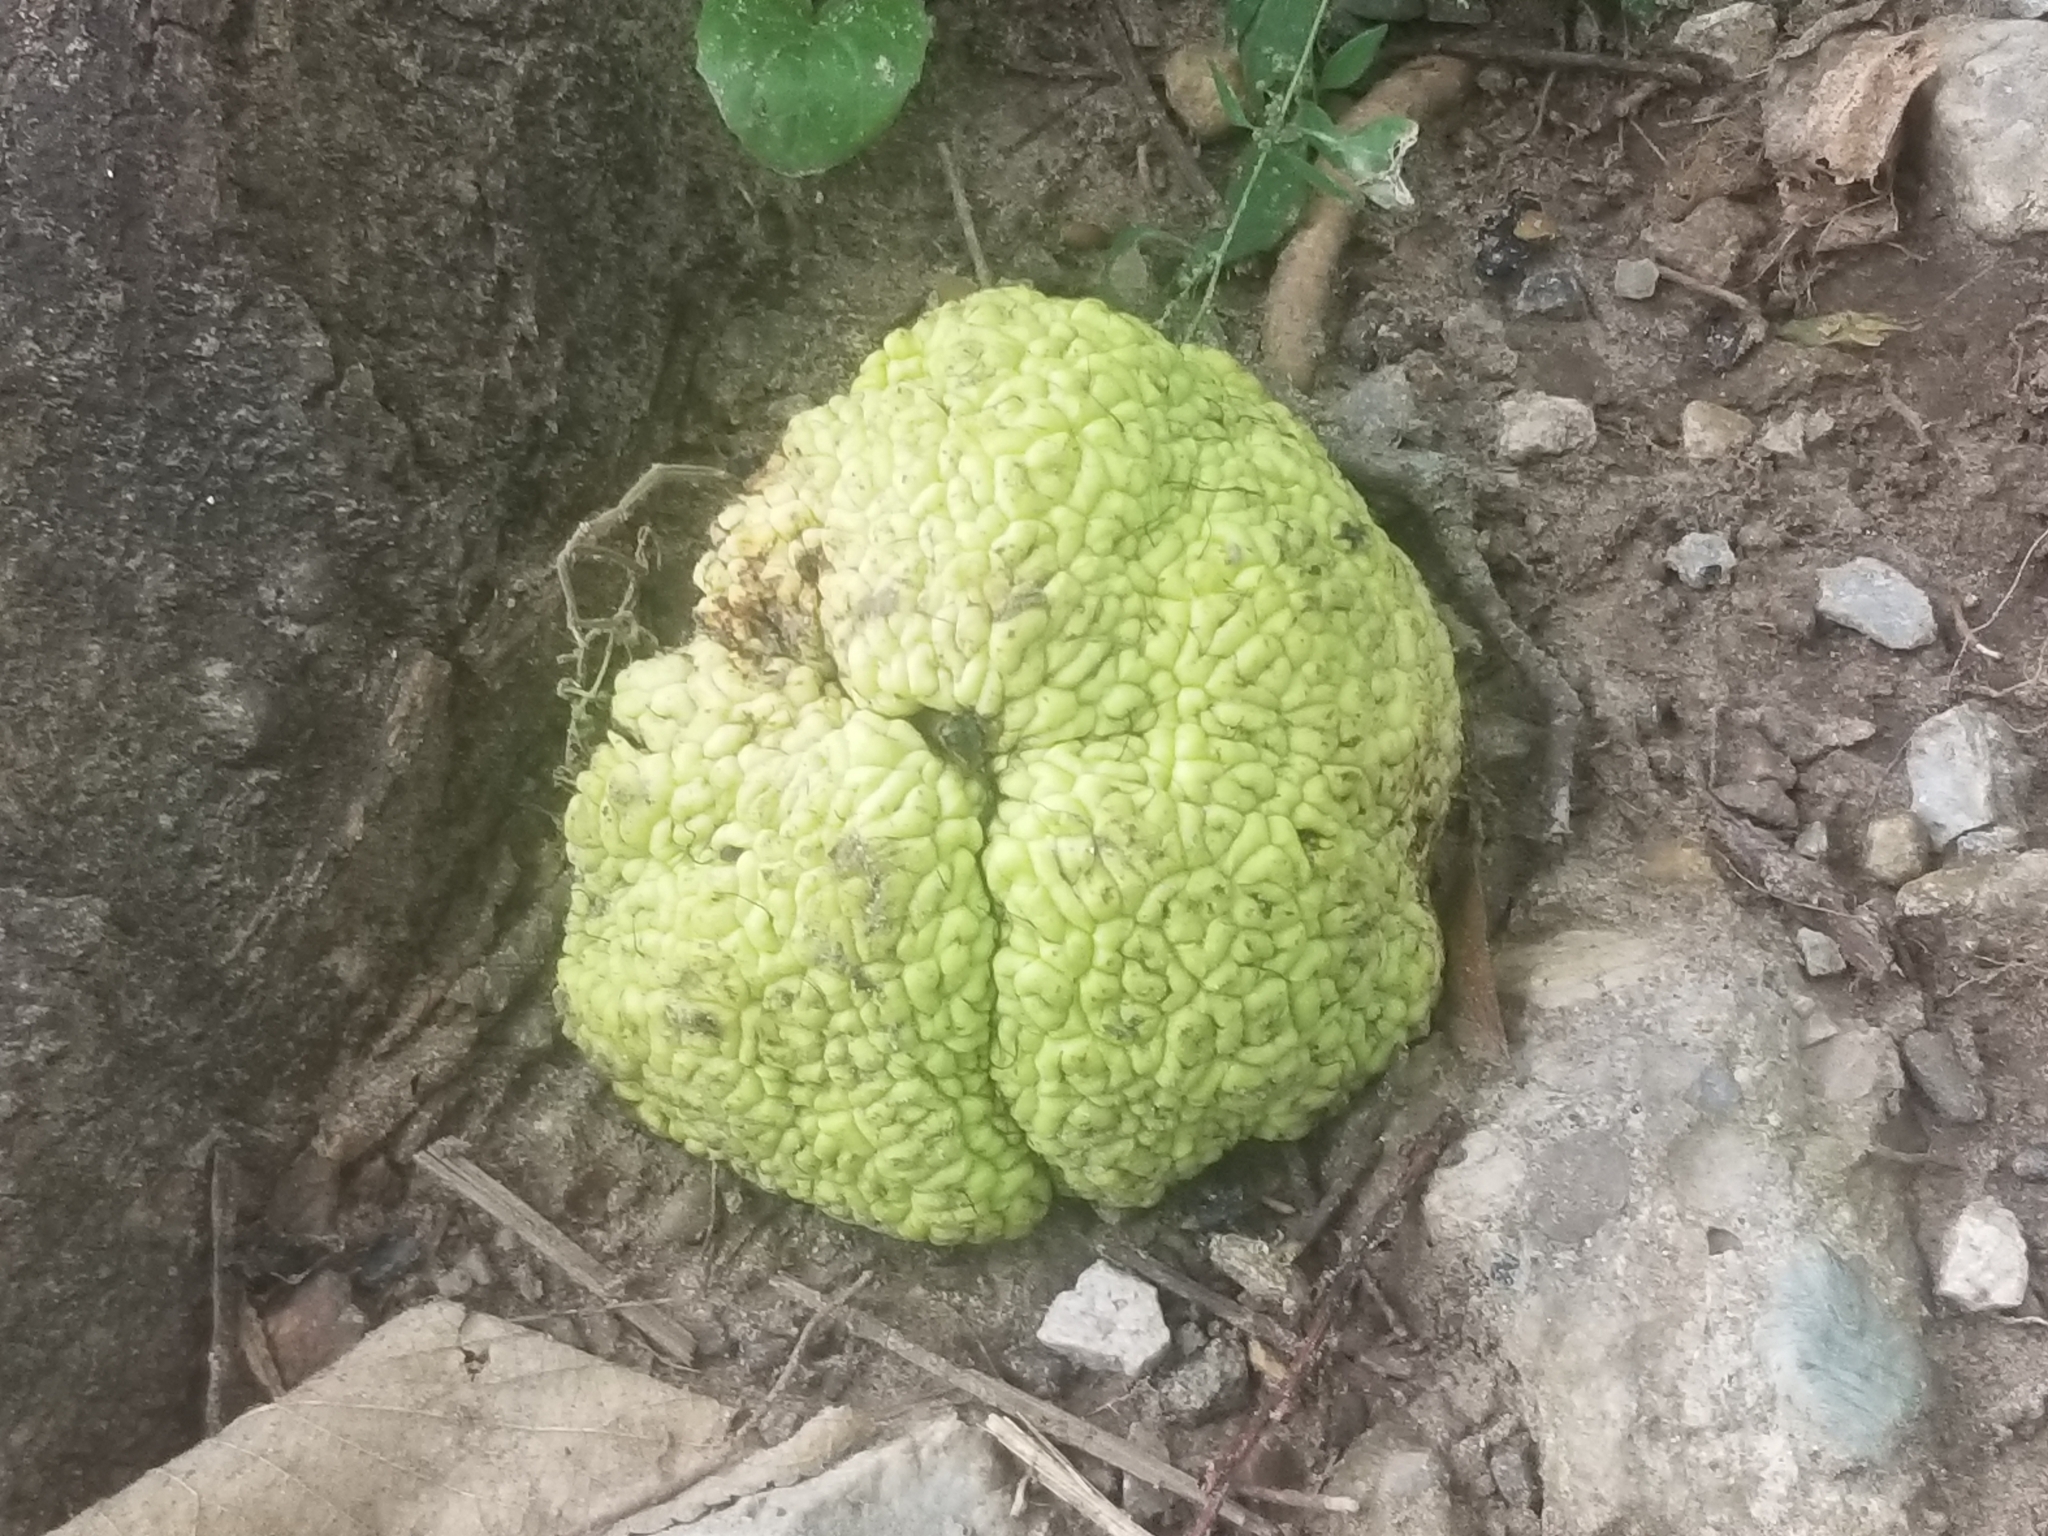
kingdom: Plantae
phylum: Tracheophyta
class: Magnoliopsida
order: Rosales
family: Moraceae
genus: Maclura
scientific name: Maclura pomifera
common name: Osage-orange
